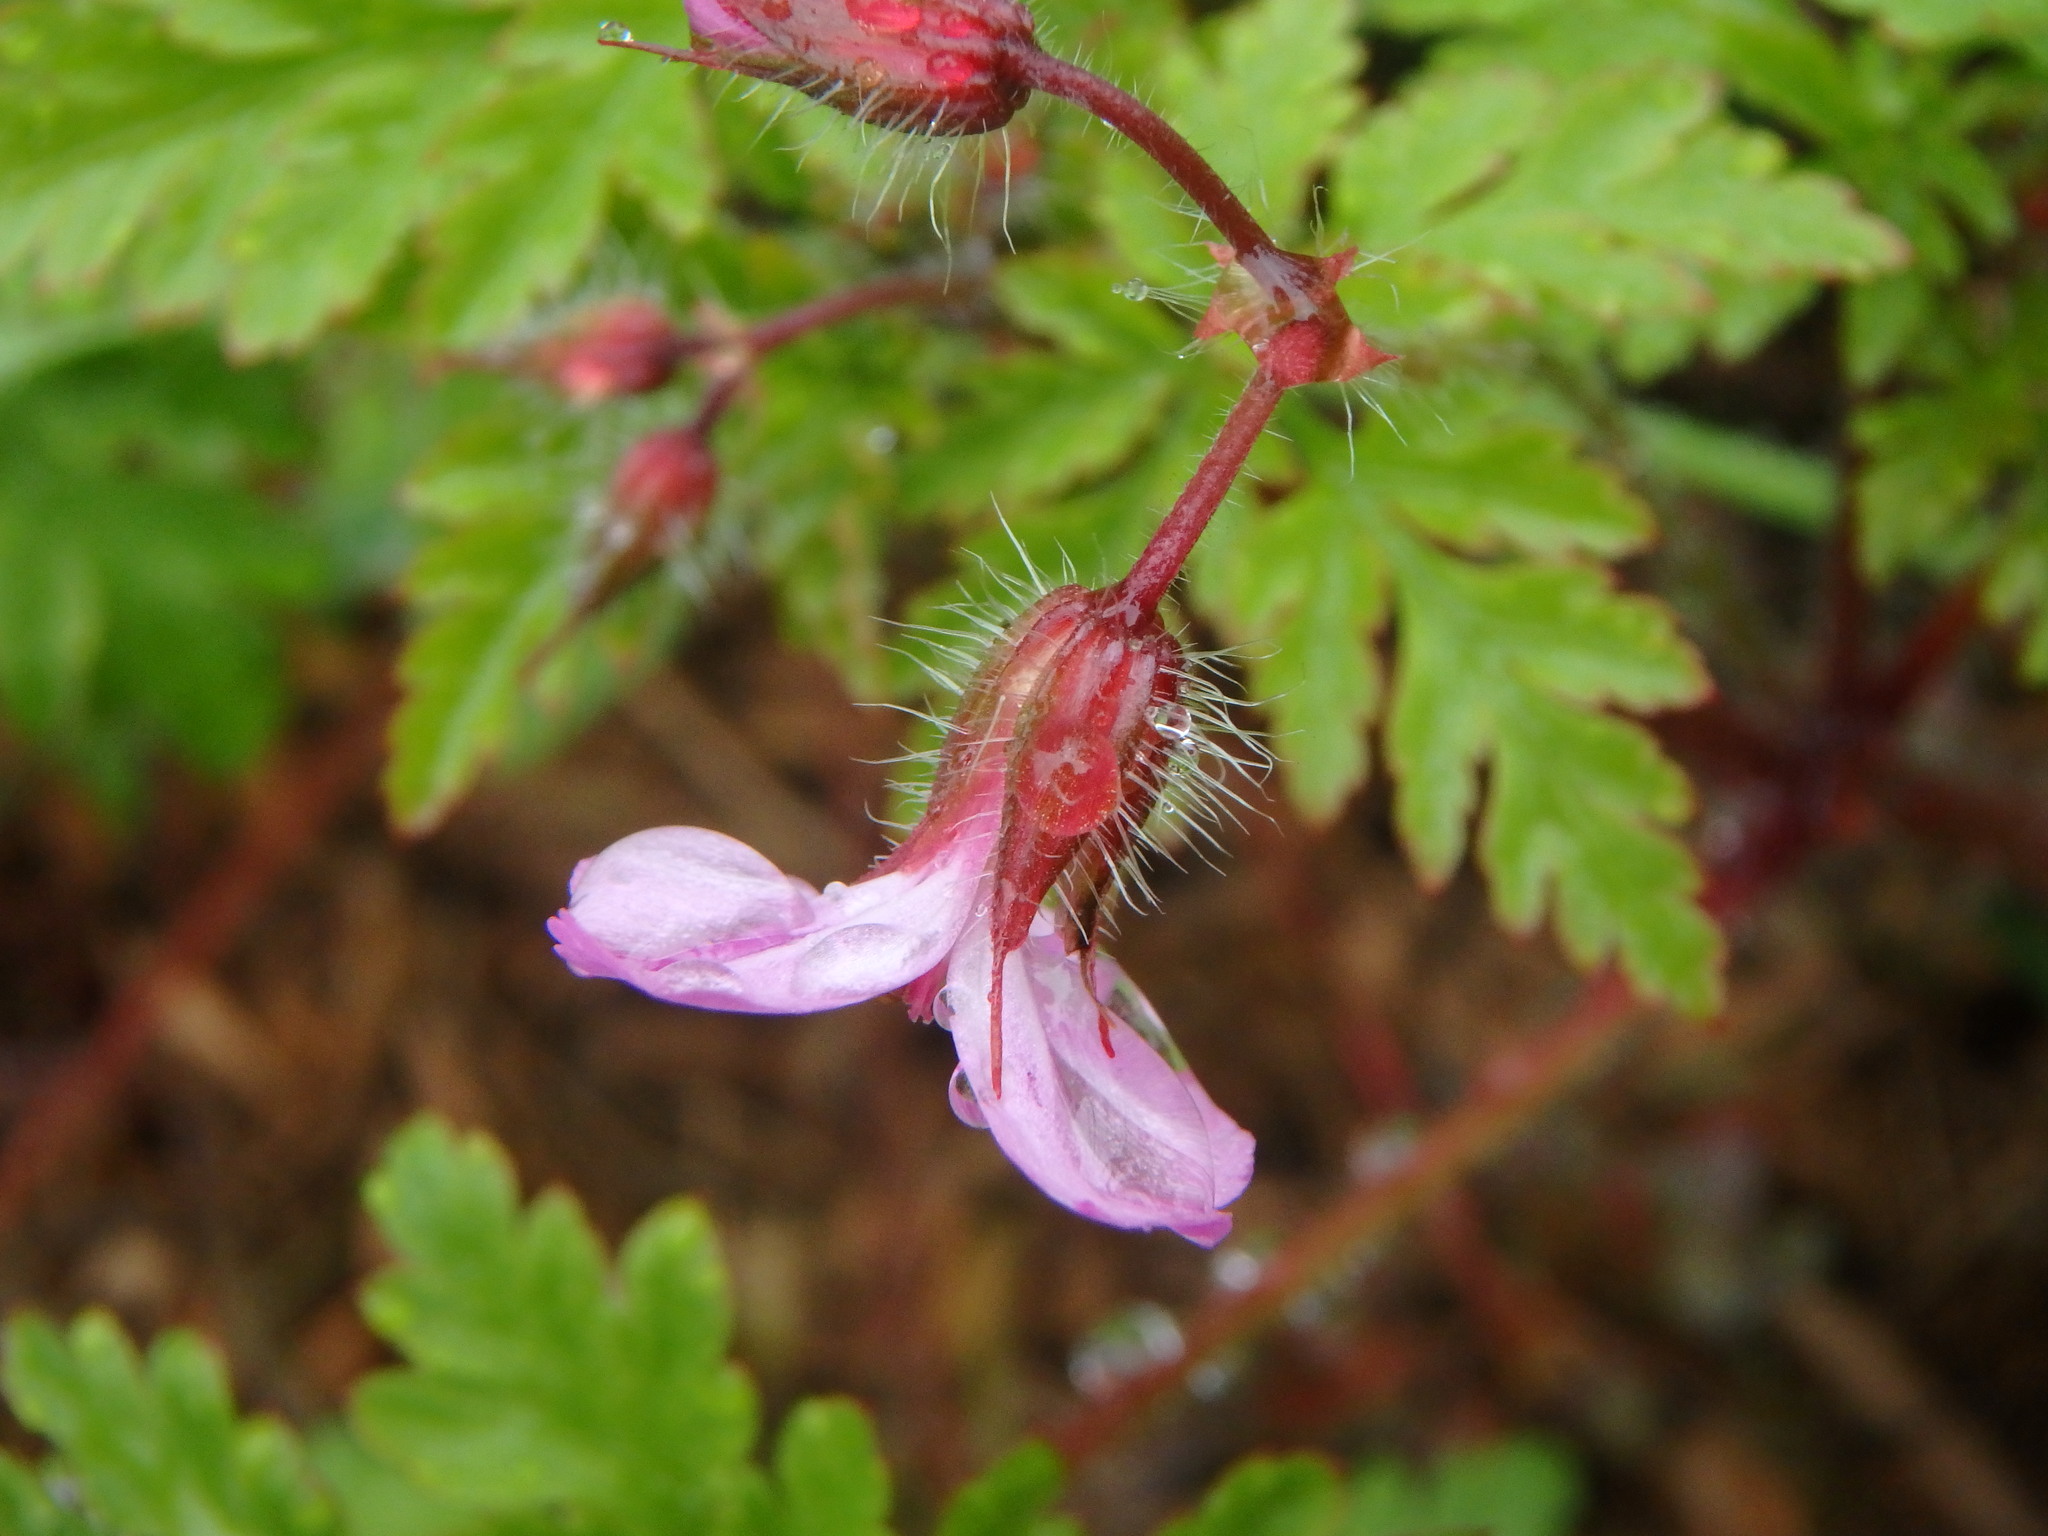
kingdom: Plantae
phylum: Tracheophyta
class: Magnoliopsida
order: Geraniales
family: Geraniaceae
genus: Geranium
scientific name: Geranium robertianum
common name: Herb-robert
